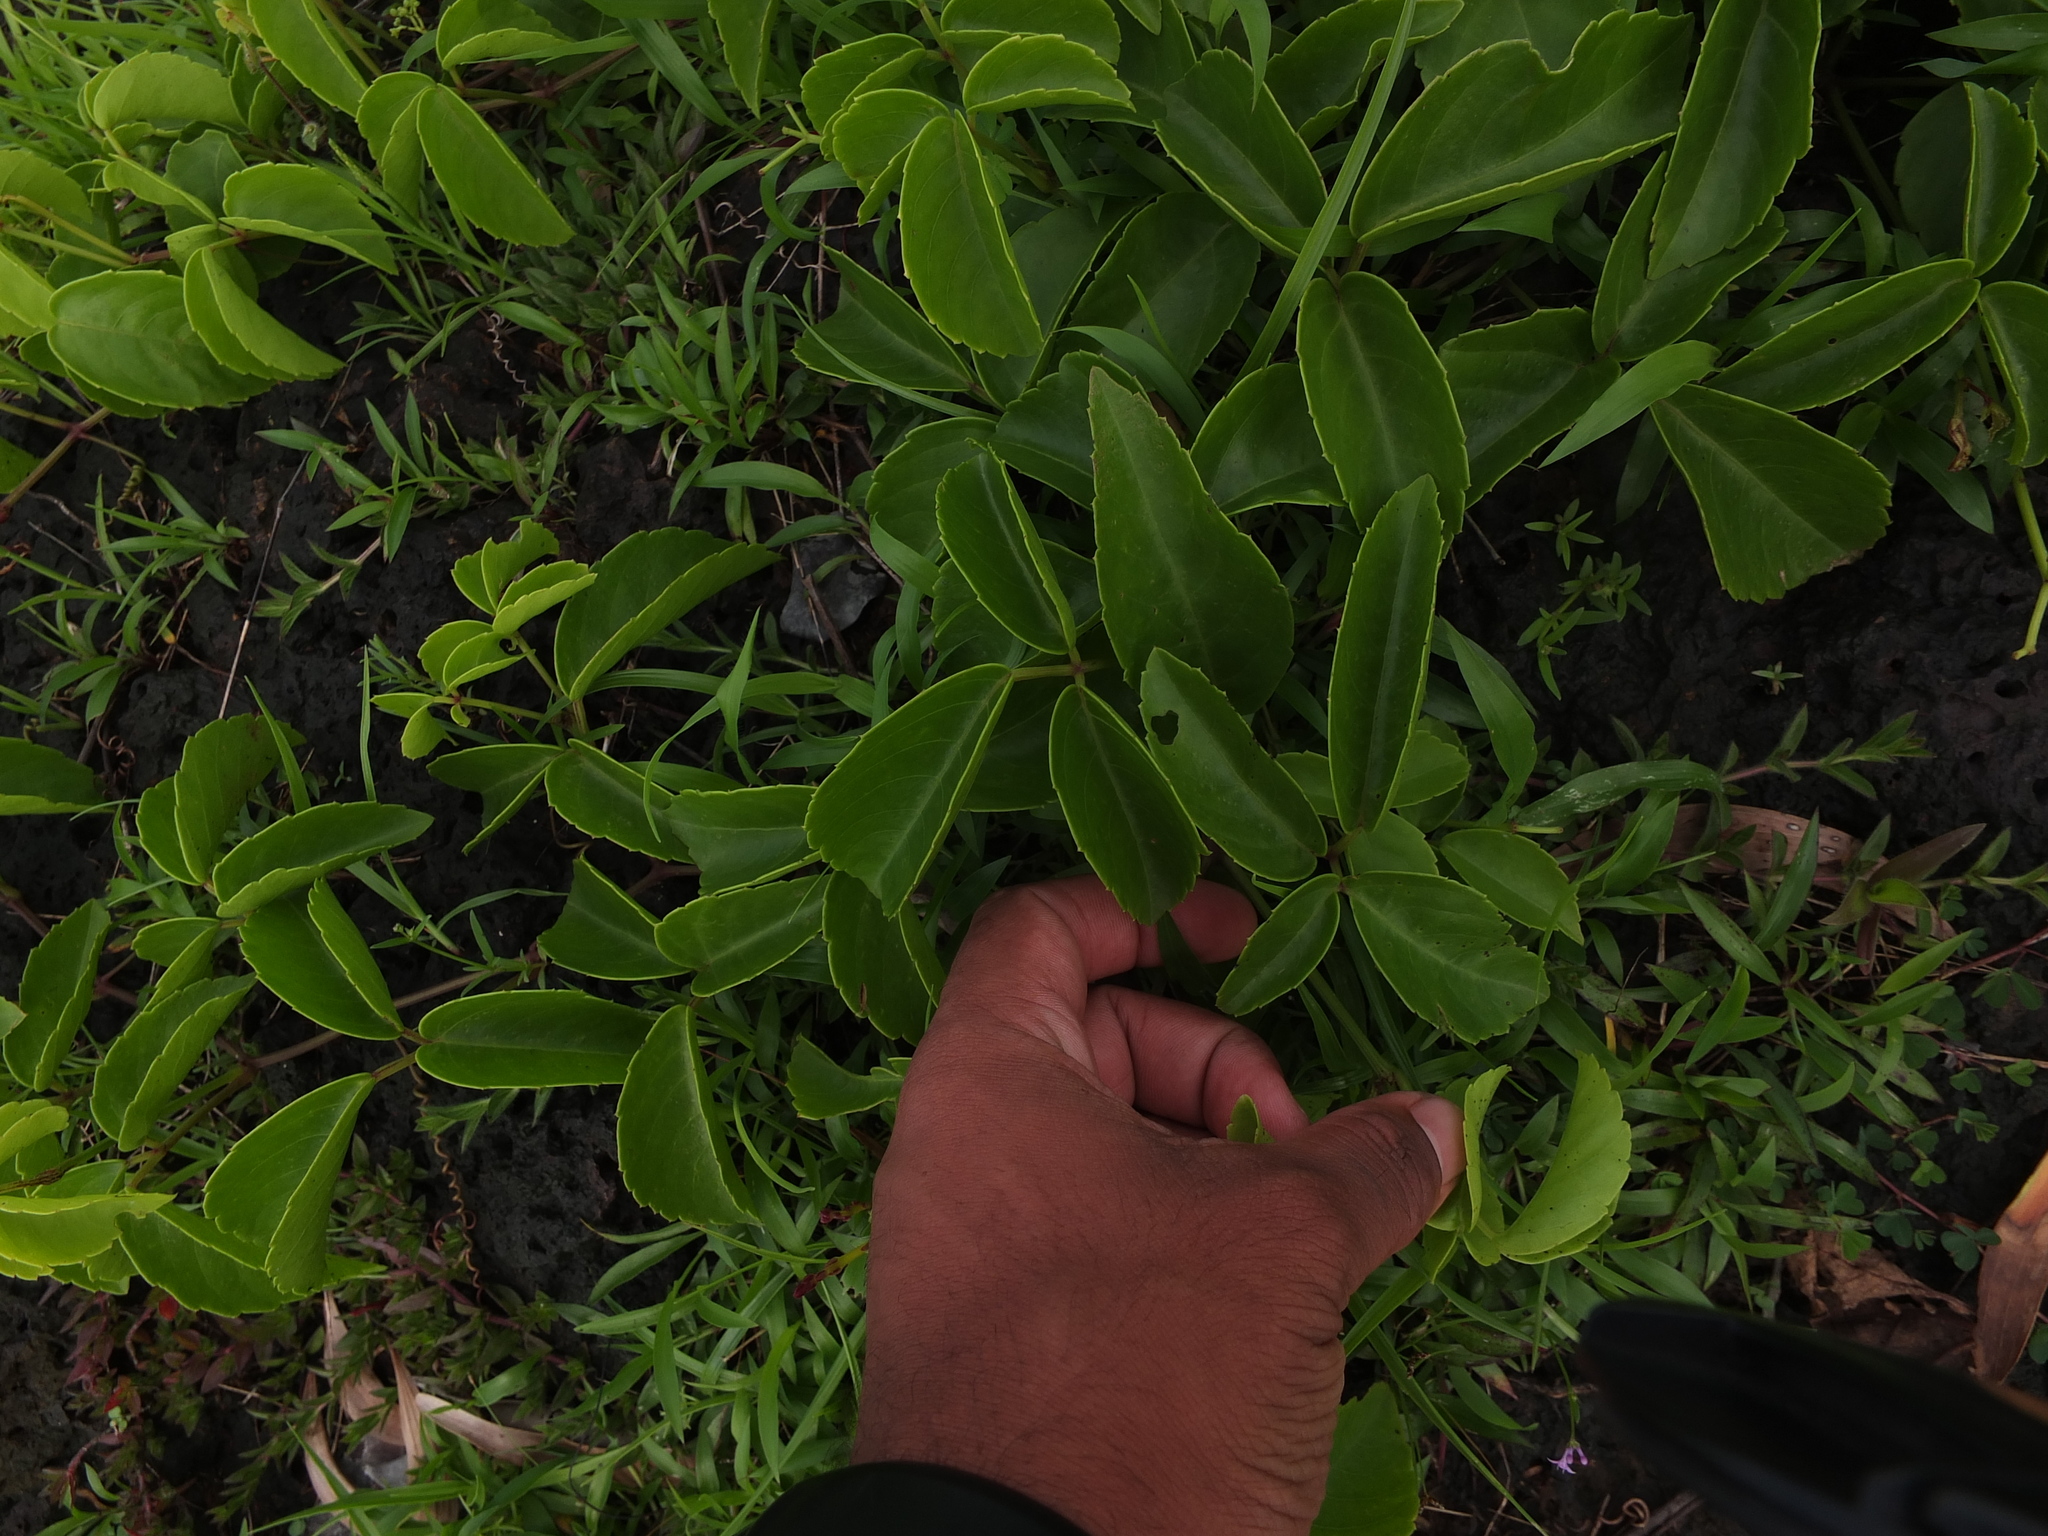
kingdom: Plantae
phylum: Tracheophyta
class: Magnoliopsida
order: Vitales
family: Vitaceae
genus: Causonis
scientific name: Causonis trifolia
